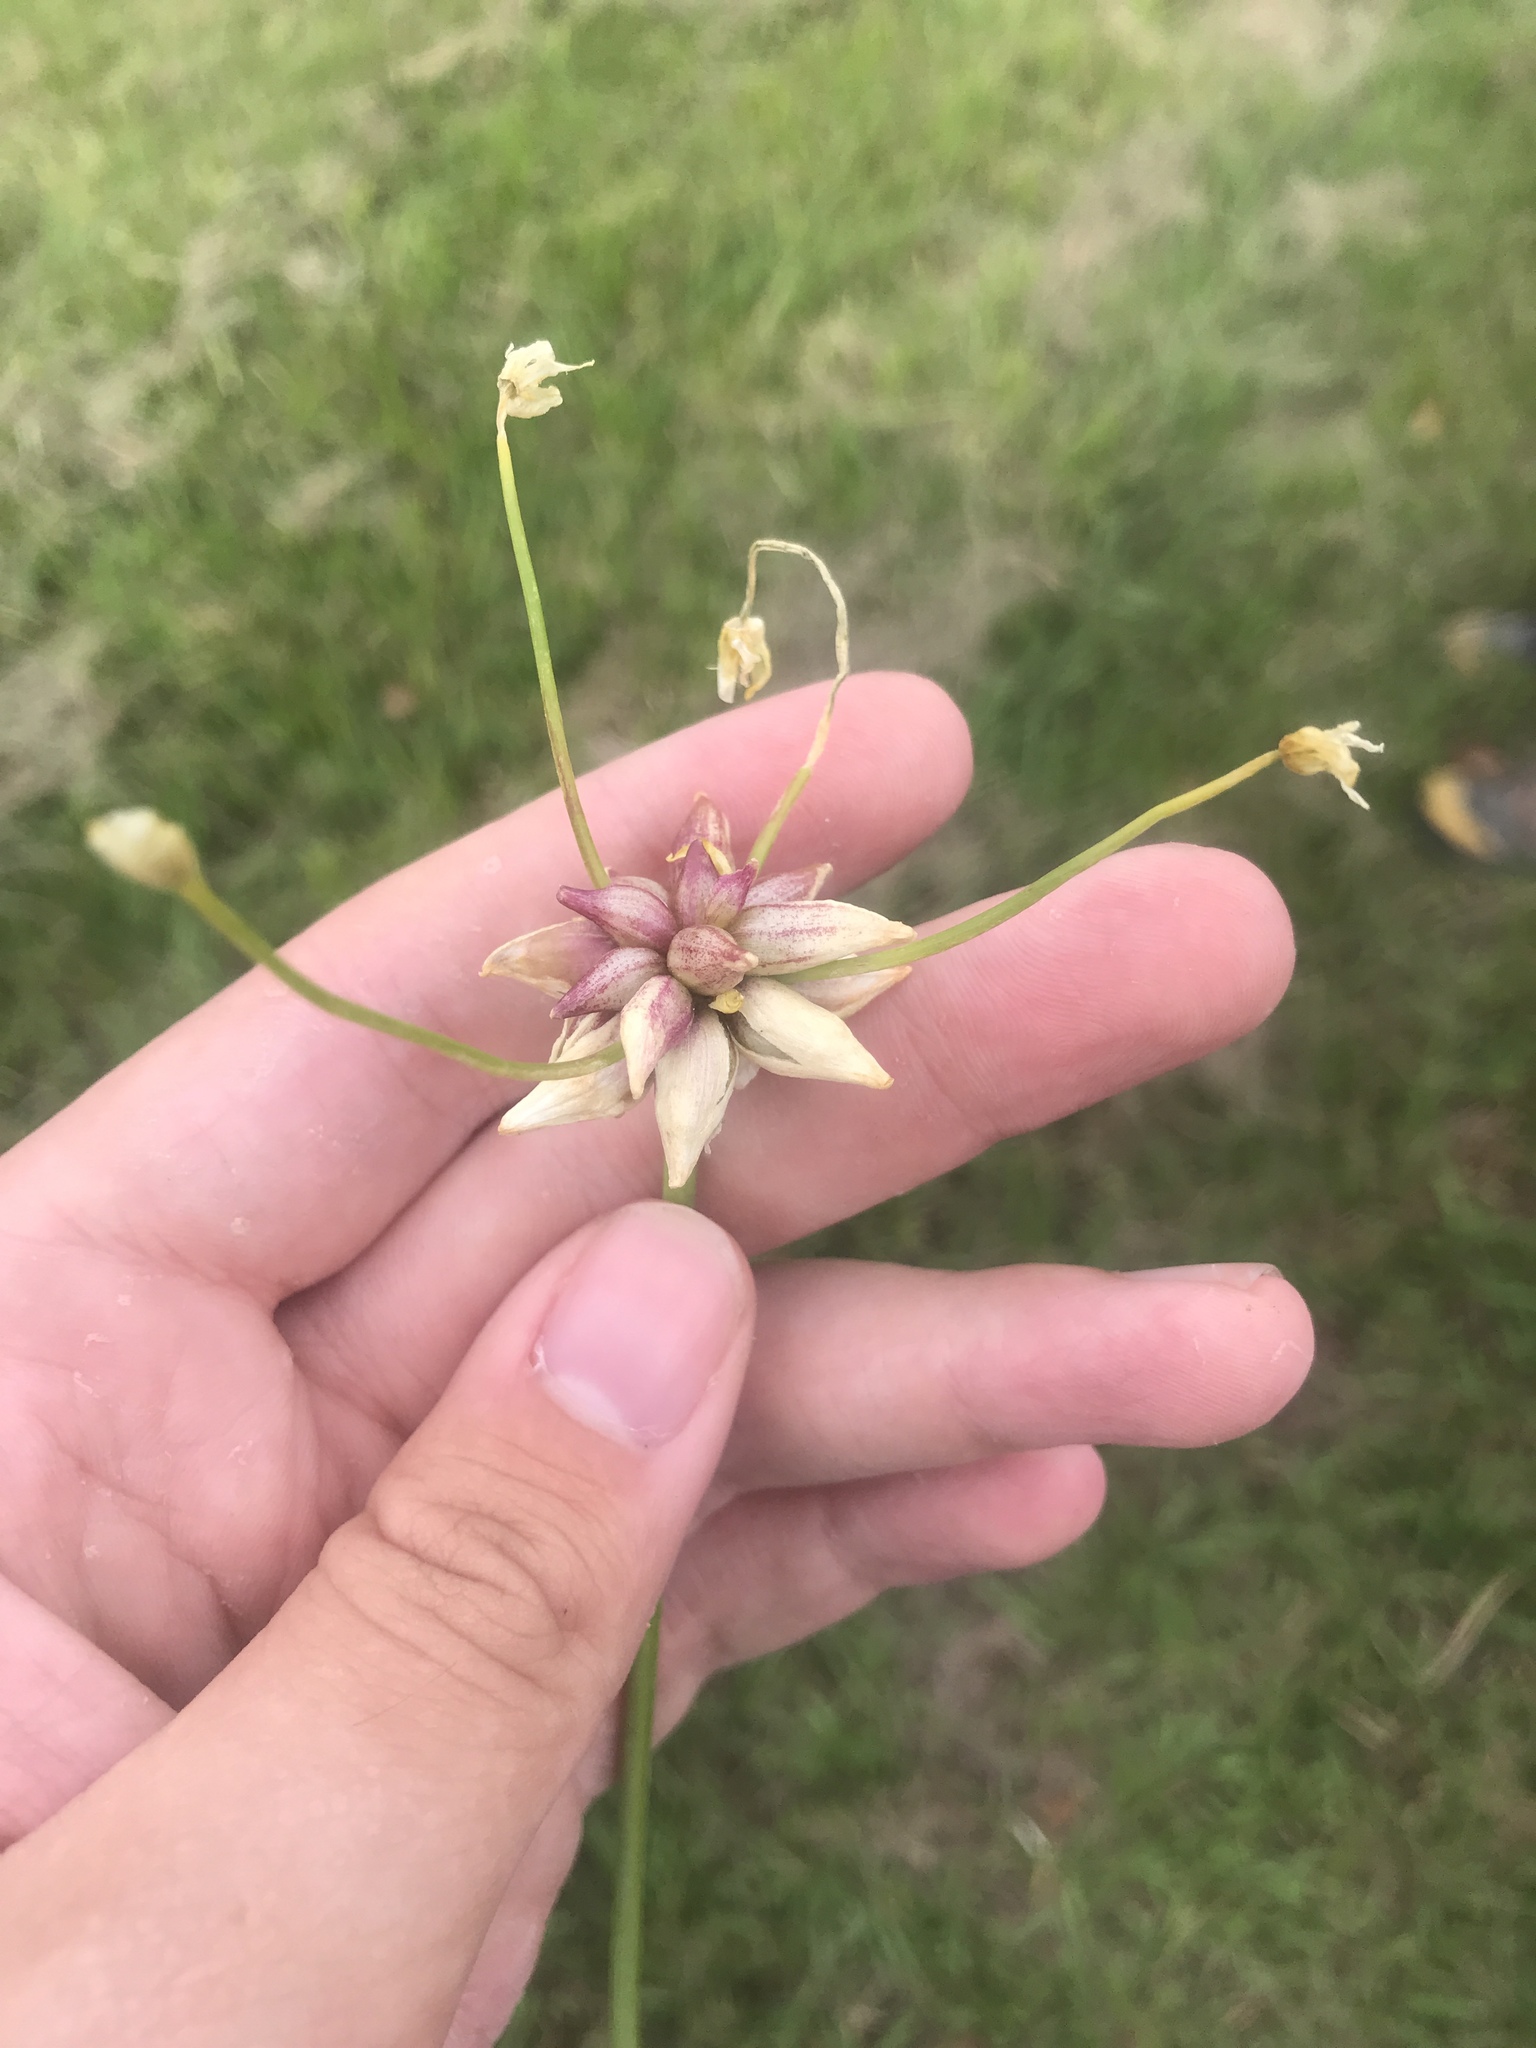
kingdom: Plantae
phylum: Tracheophyta
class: Liliopsida
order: Asparagales
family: Amaryllidaceae
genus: Allium
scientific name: Allium canadense
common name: Meadow garlic
